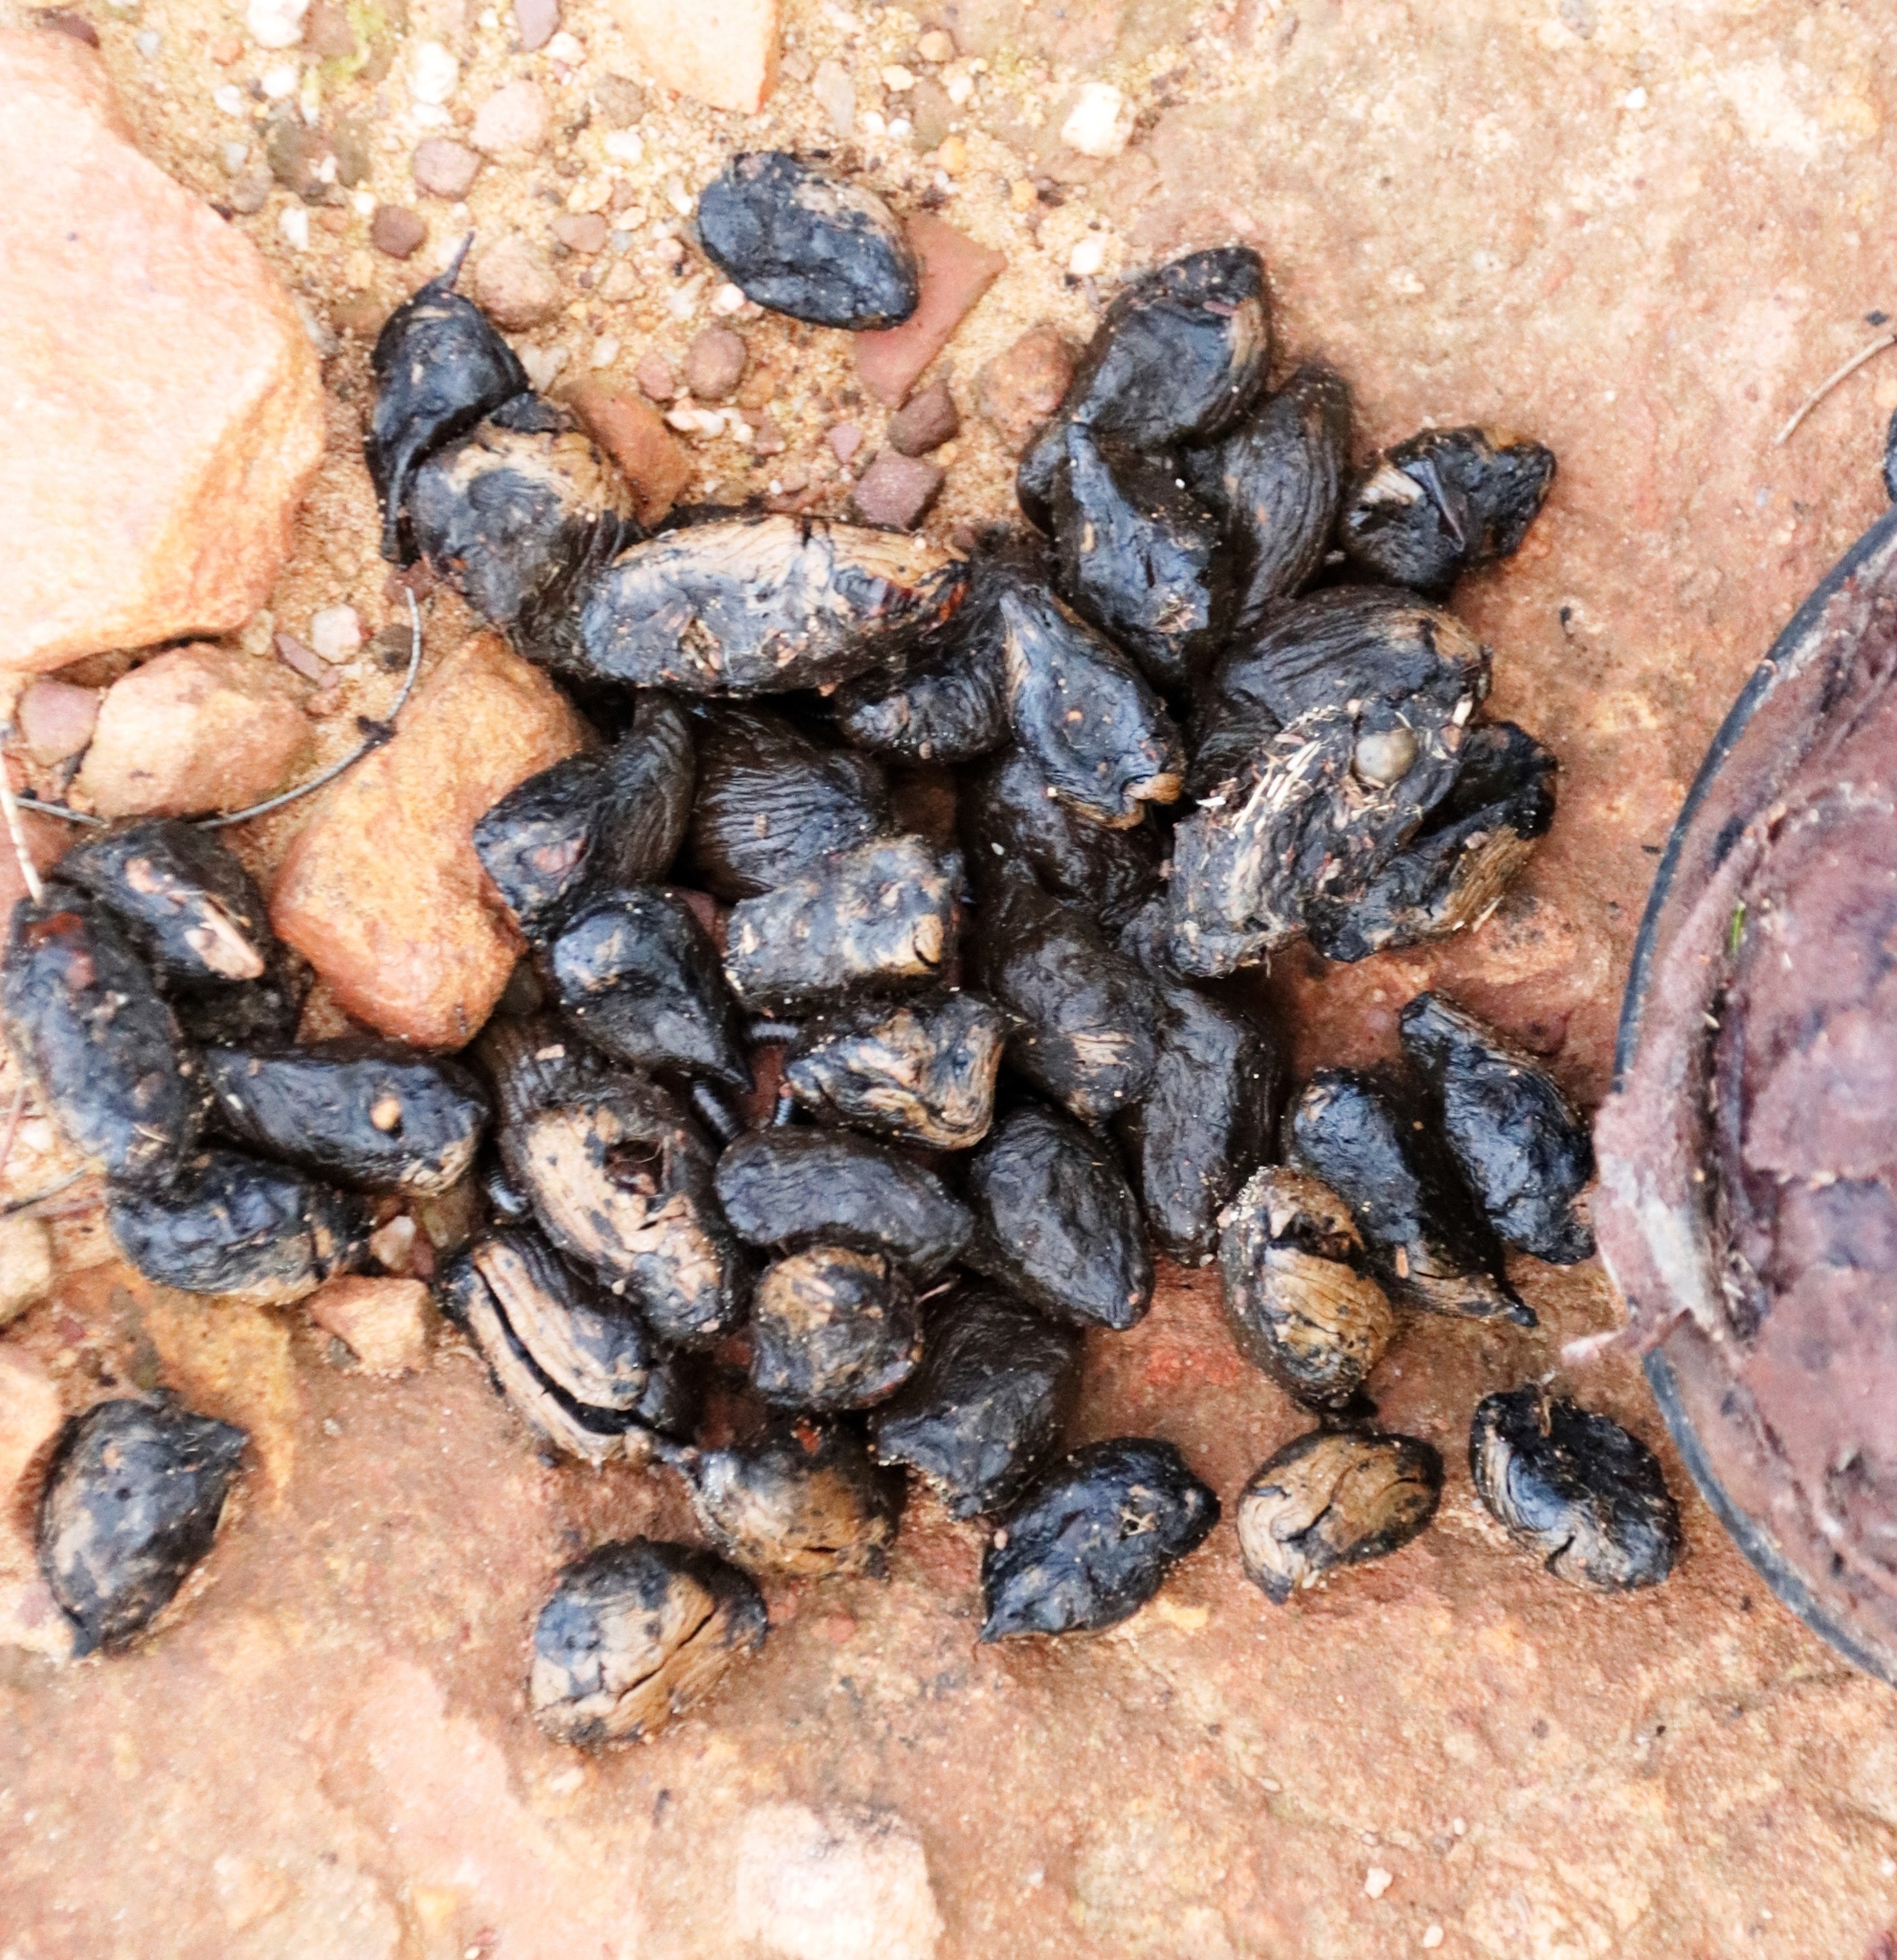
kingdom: Animalia
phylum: Chordata
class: Mammalia
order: Rodentia
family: Hystricidae
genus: Hystrix
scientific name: Hystrix africaeaustralis
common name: Cape porcupine
